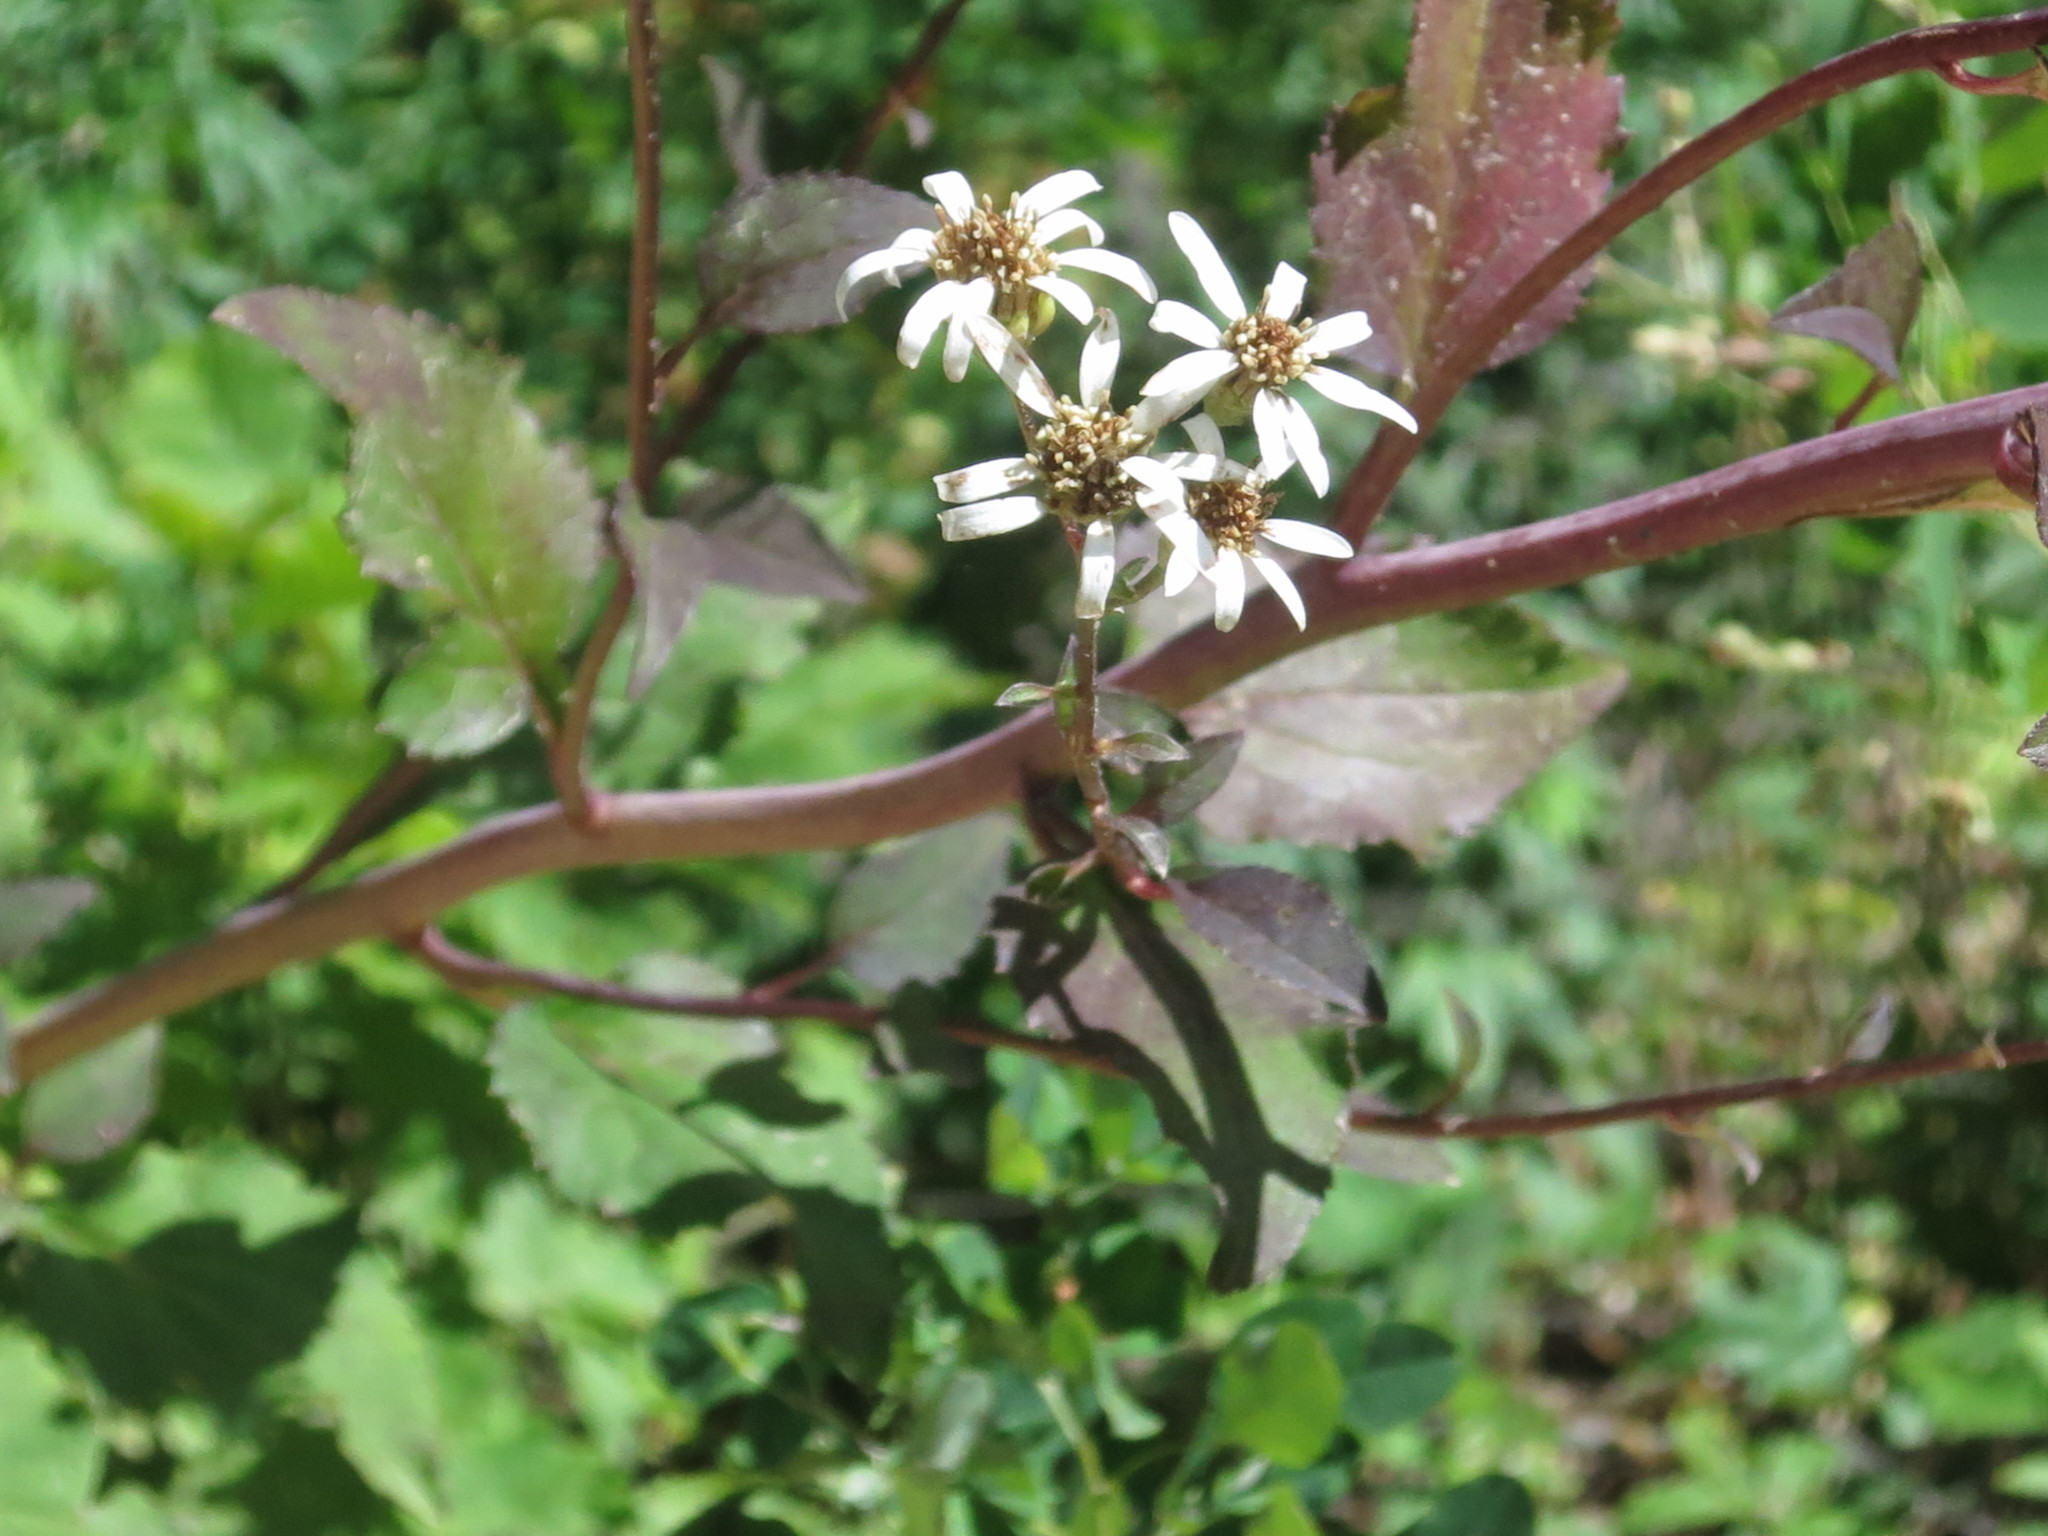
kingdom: Plantae
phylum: Tracheophyta
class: Magnoliopsida
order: Asterales
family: Asteraceae
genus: Aster
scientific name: Aster scaber
